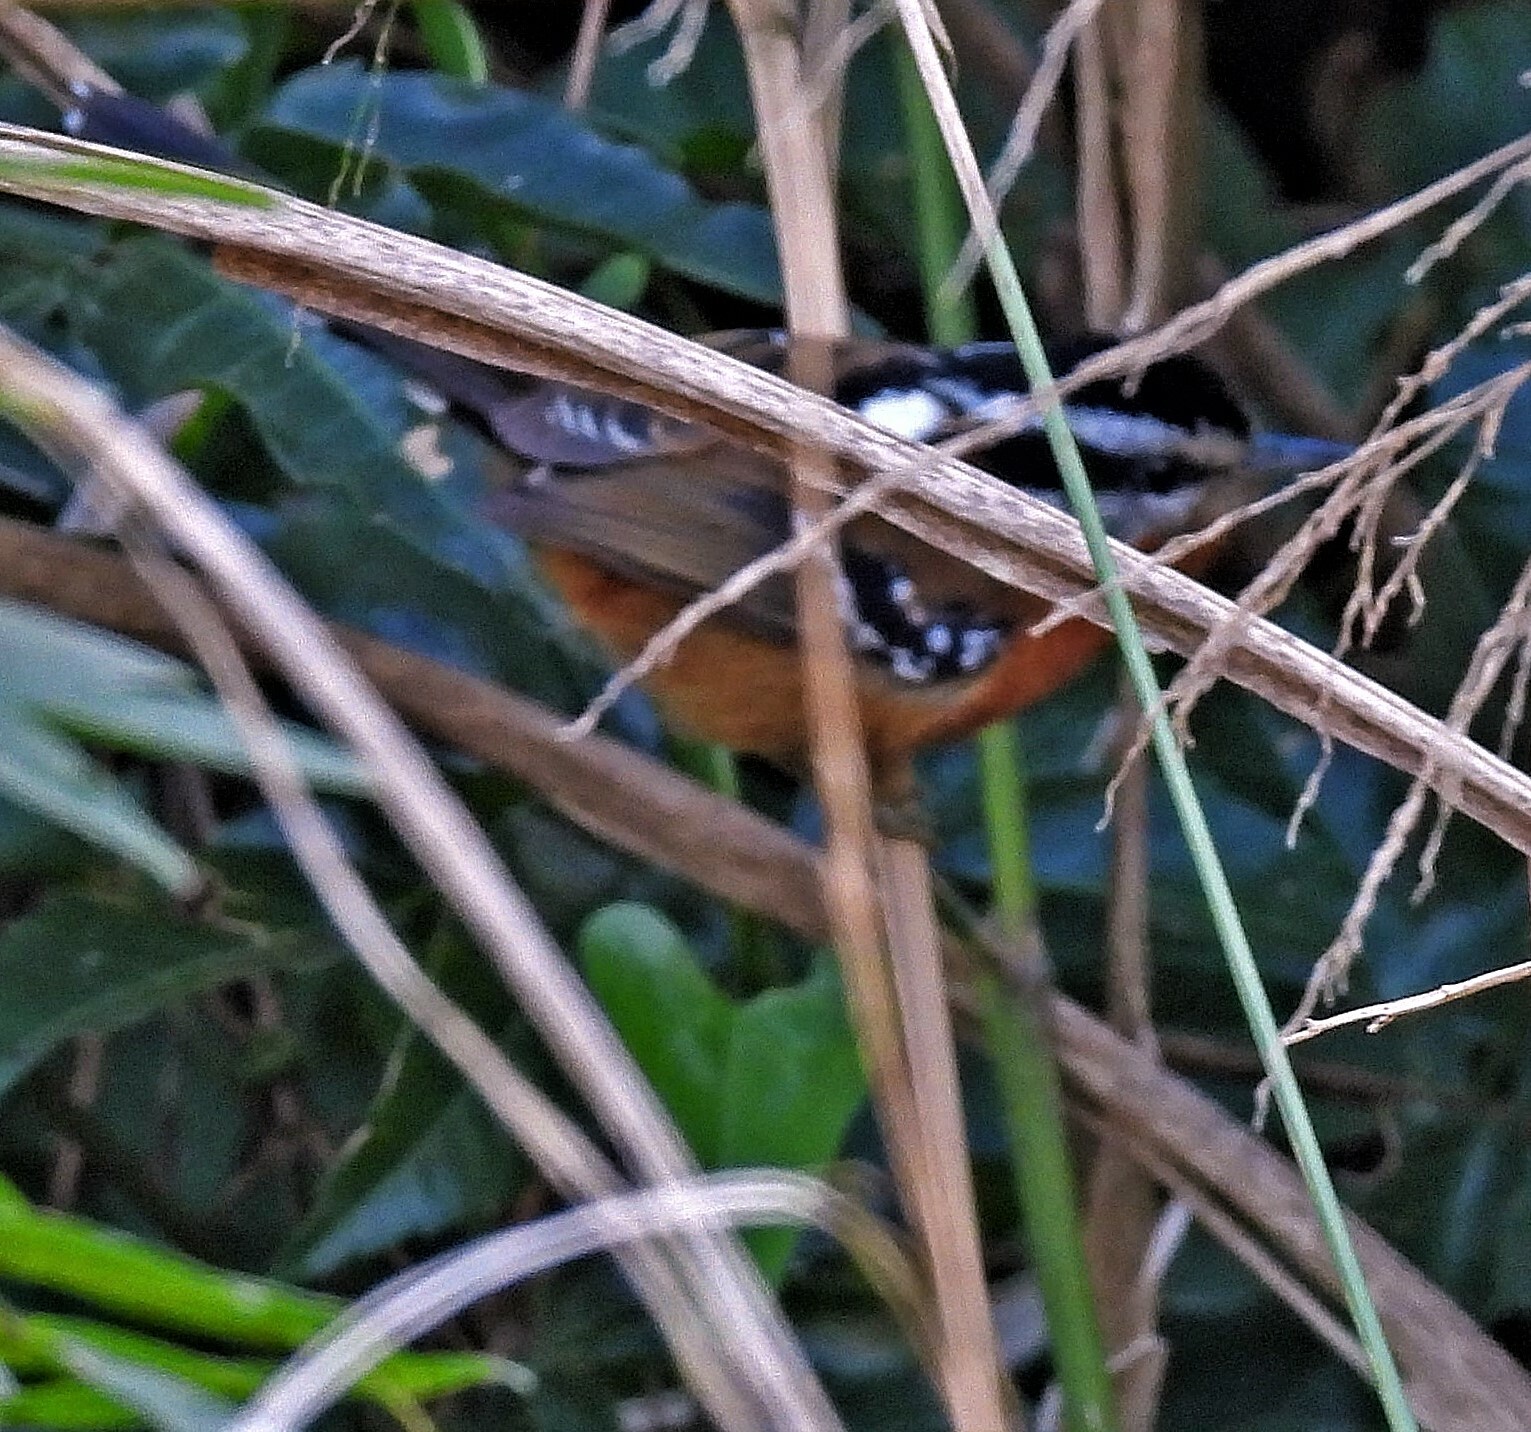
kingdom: Animalia
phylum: Chordata
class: Aves
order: Passeriformes
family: Thamnophilidae
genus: Drymophila
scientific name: Drymophila rubricollis
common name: Bertoni's antbird
